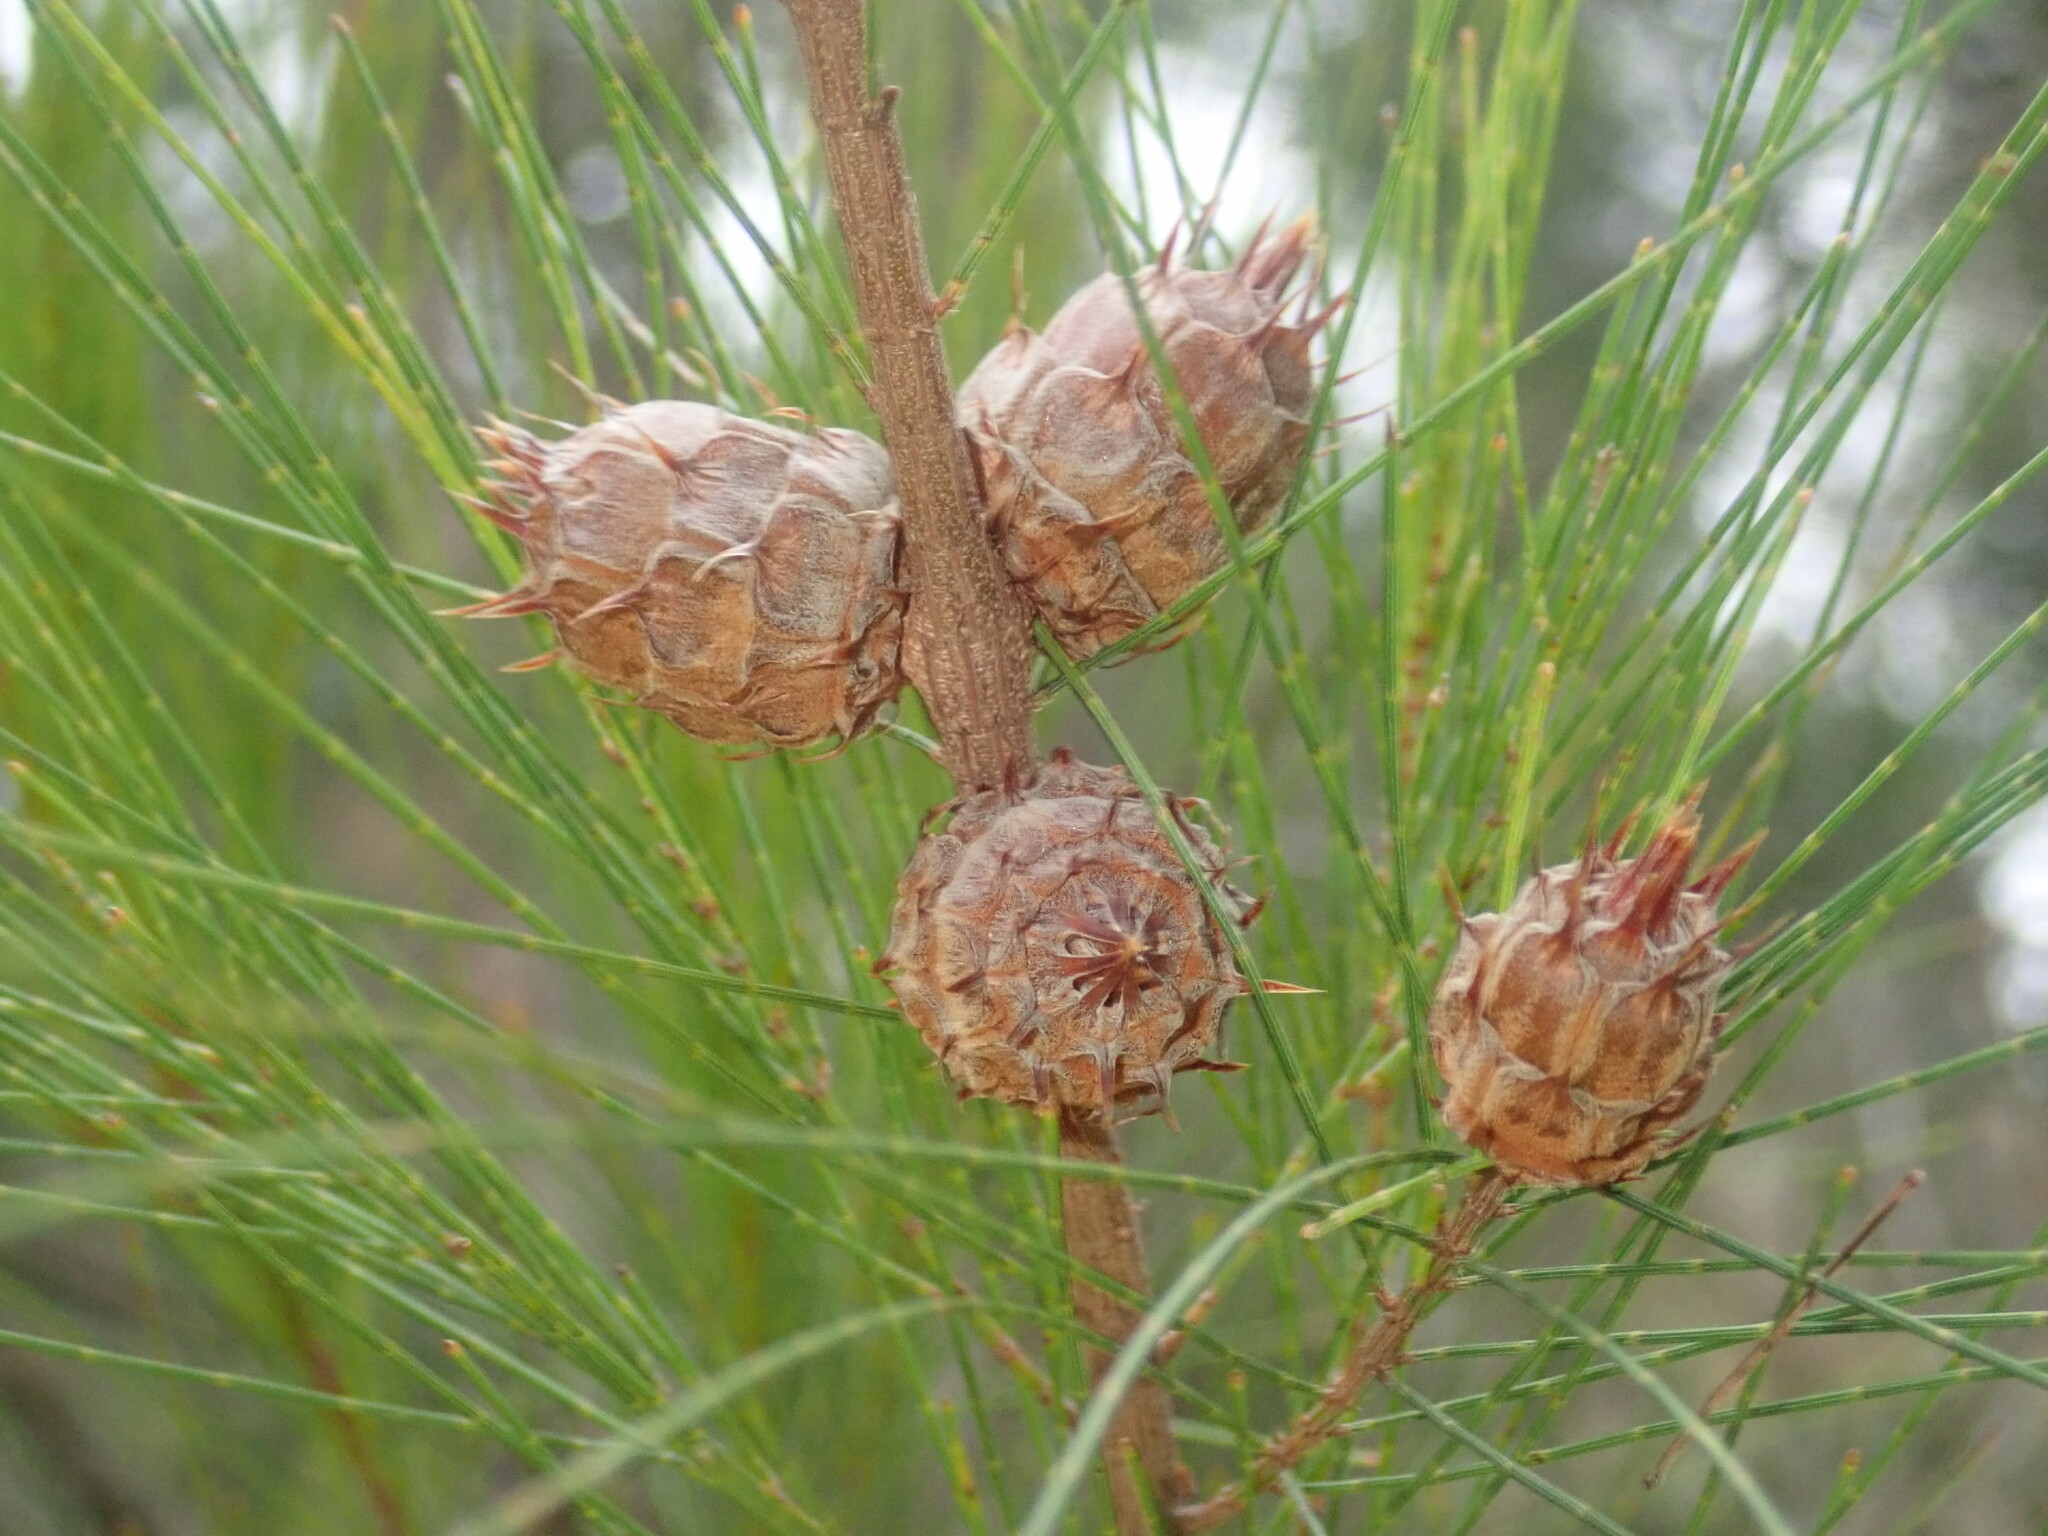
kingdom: Animalia
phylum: Arthropoda
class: Insecta
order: Hemiptera
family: Eriococcidae
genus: Cylindrococcus
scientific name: Cylindrococcus spiniferus
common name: Casuarina gall
